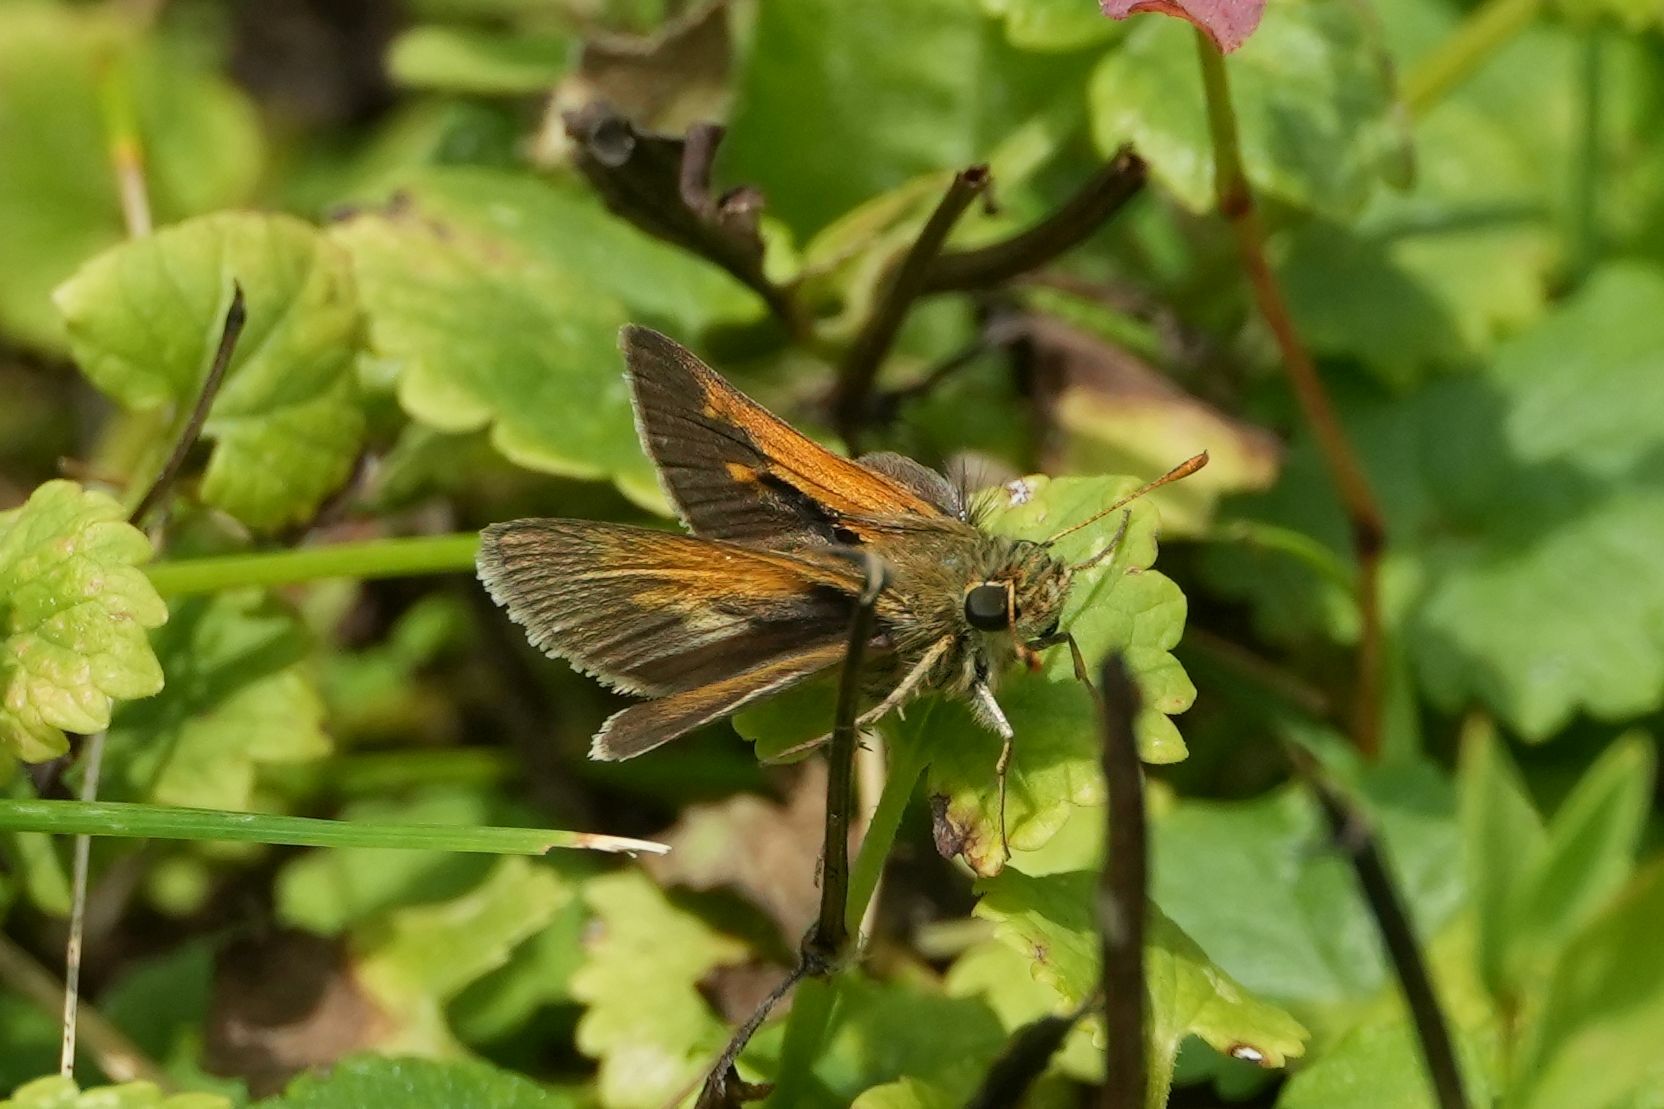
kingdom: Animalia
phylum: Arthropoda
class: Insecta
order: Lepidoptera
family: Hesperiidae
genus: Polites
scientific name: Polites themistocles
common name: Tawny-edged skipper
